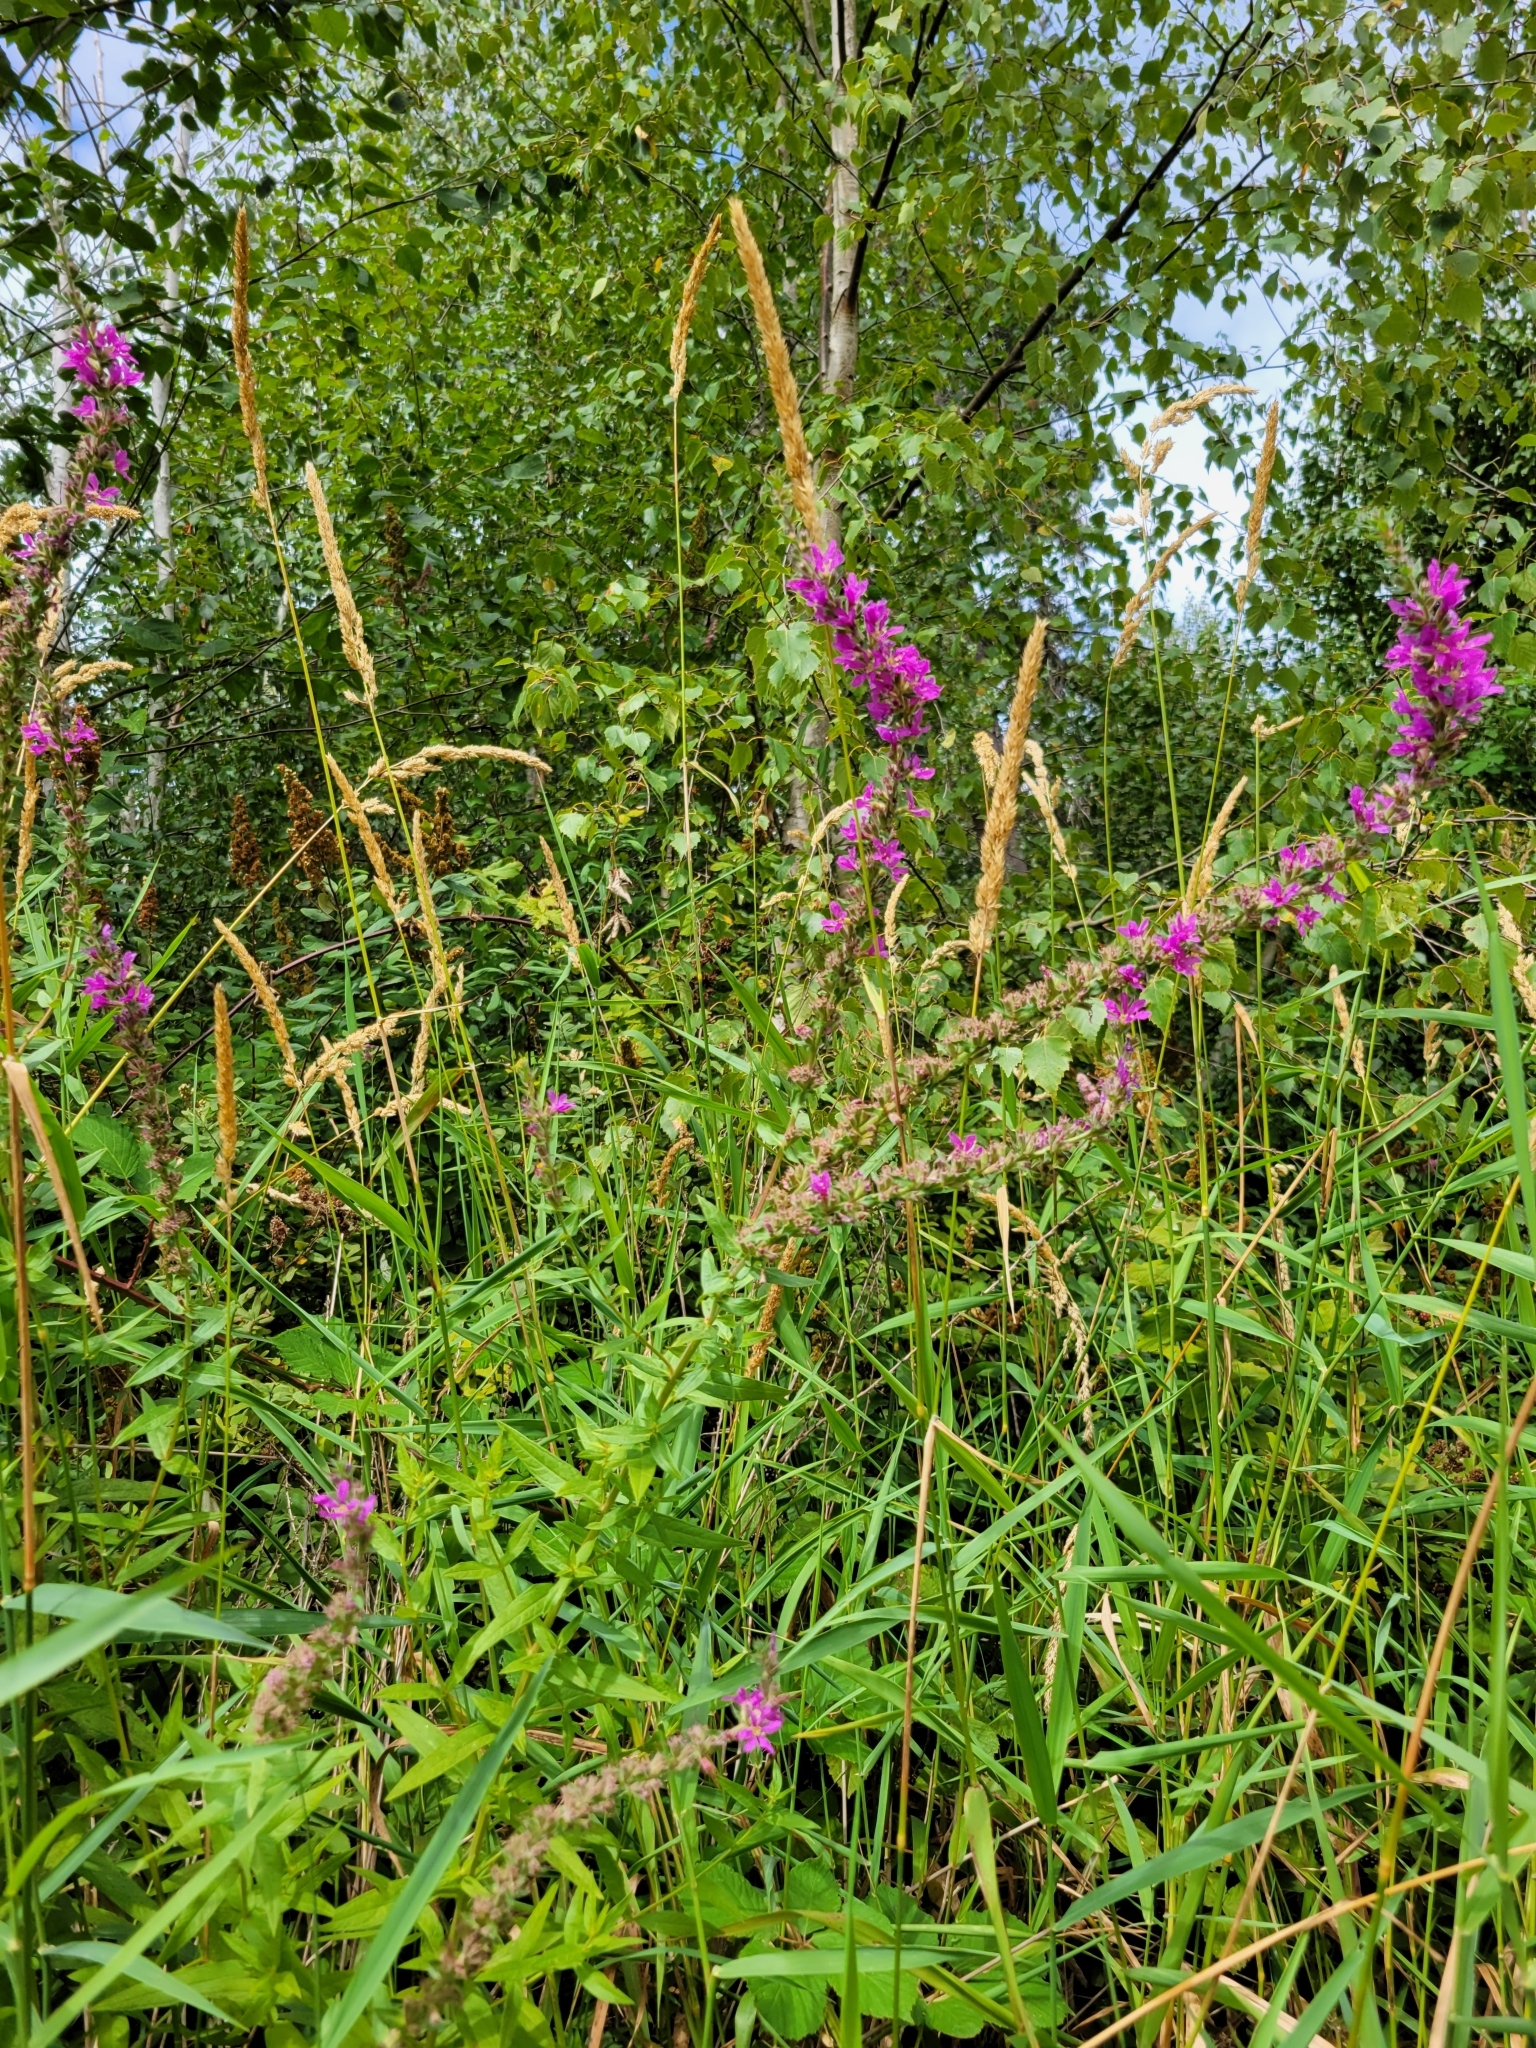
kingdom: Plantae
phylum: Tracheophyta
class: Magnoliopsida
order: Myrtales
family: Lythraceae
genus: Lythrum
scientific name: Lythrum salicaria
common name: Purple loosestrife
